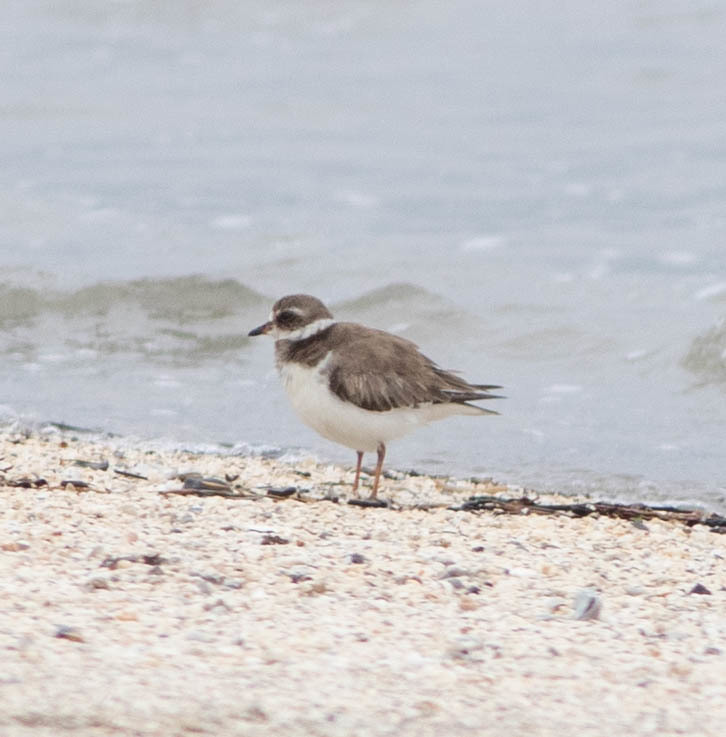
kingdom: Animalia
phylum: Chordata
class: Aves
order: Charadriiformes
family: Charadriidae
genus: Charadrius
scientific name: Charadrius semipalmatus
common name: Semipalmated plover
